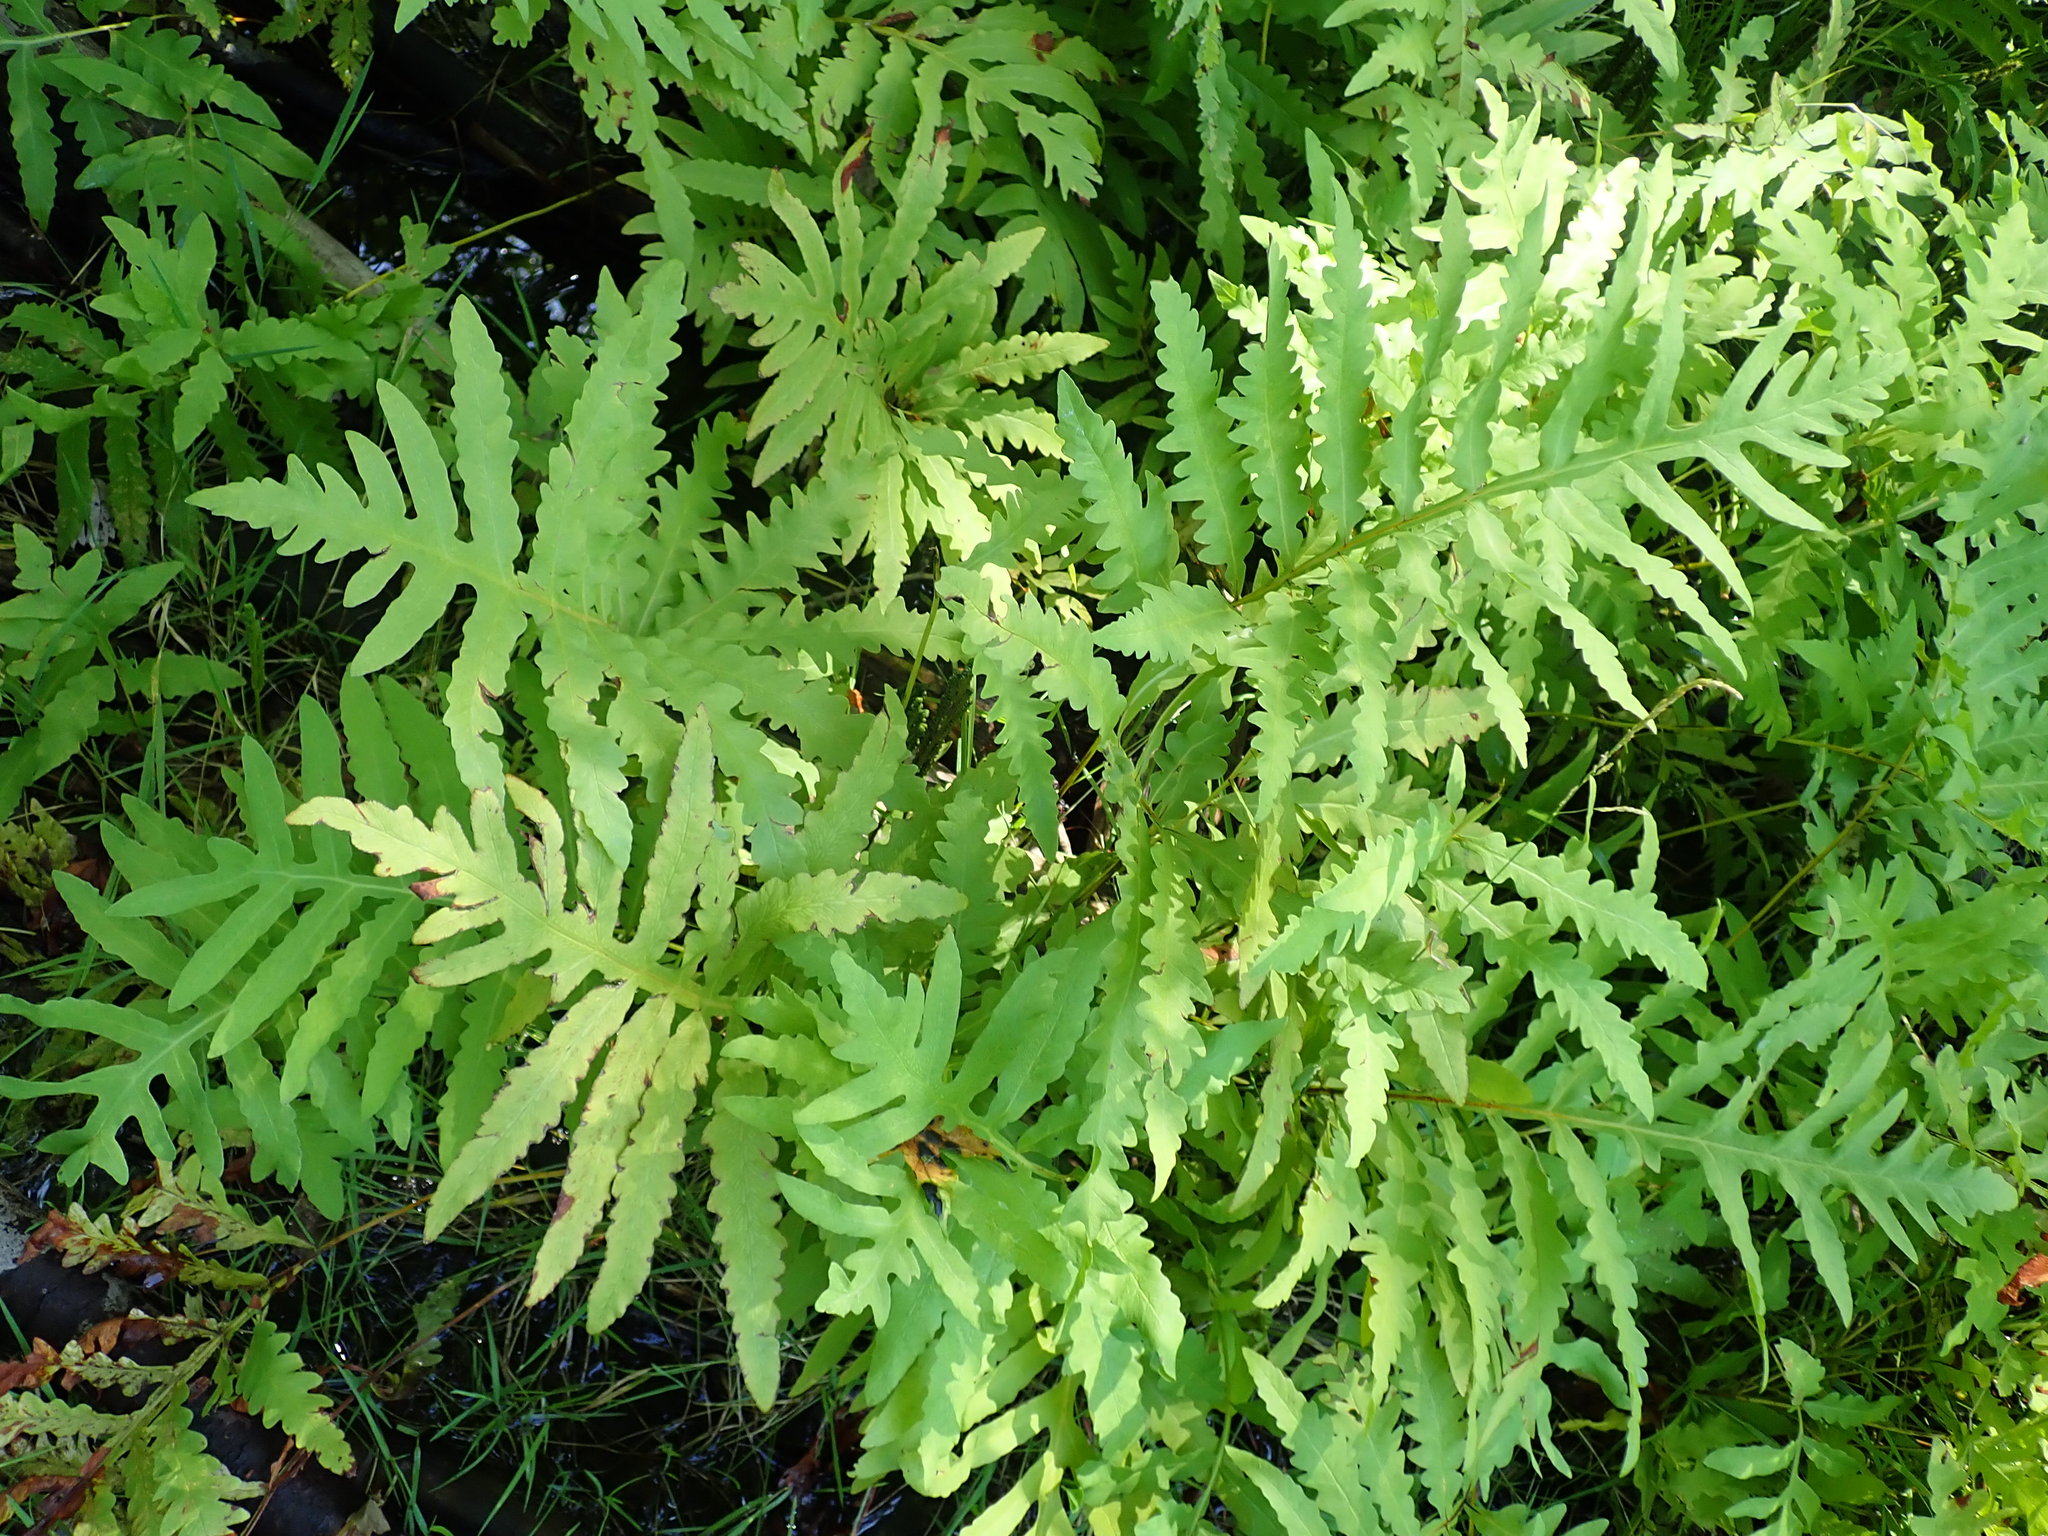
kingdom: Plantae
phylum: Tracheophyta
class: Polypodiopsida
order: Polypodiales
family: Onocleaceae
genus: Onoclea
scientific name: Onoclea sensibilis
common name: Sensitive fern
